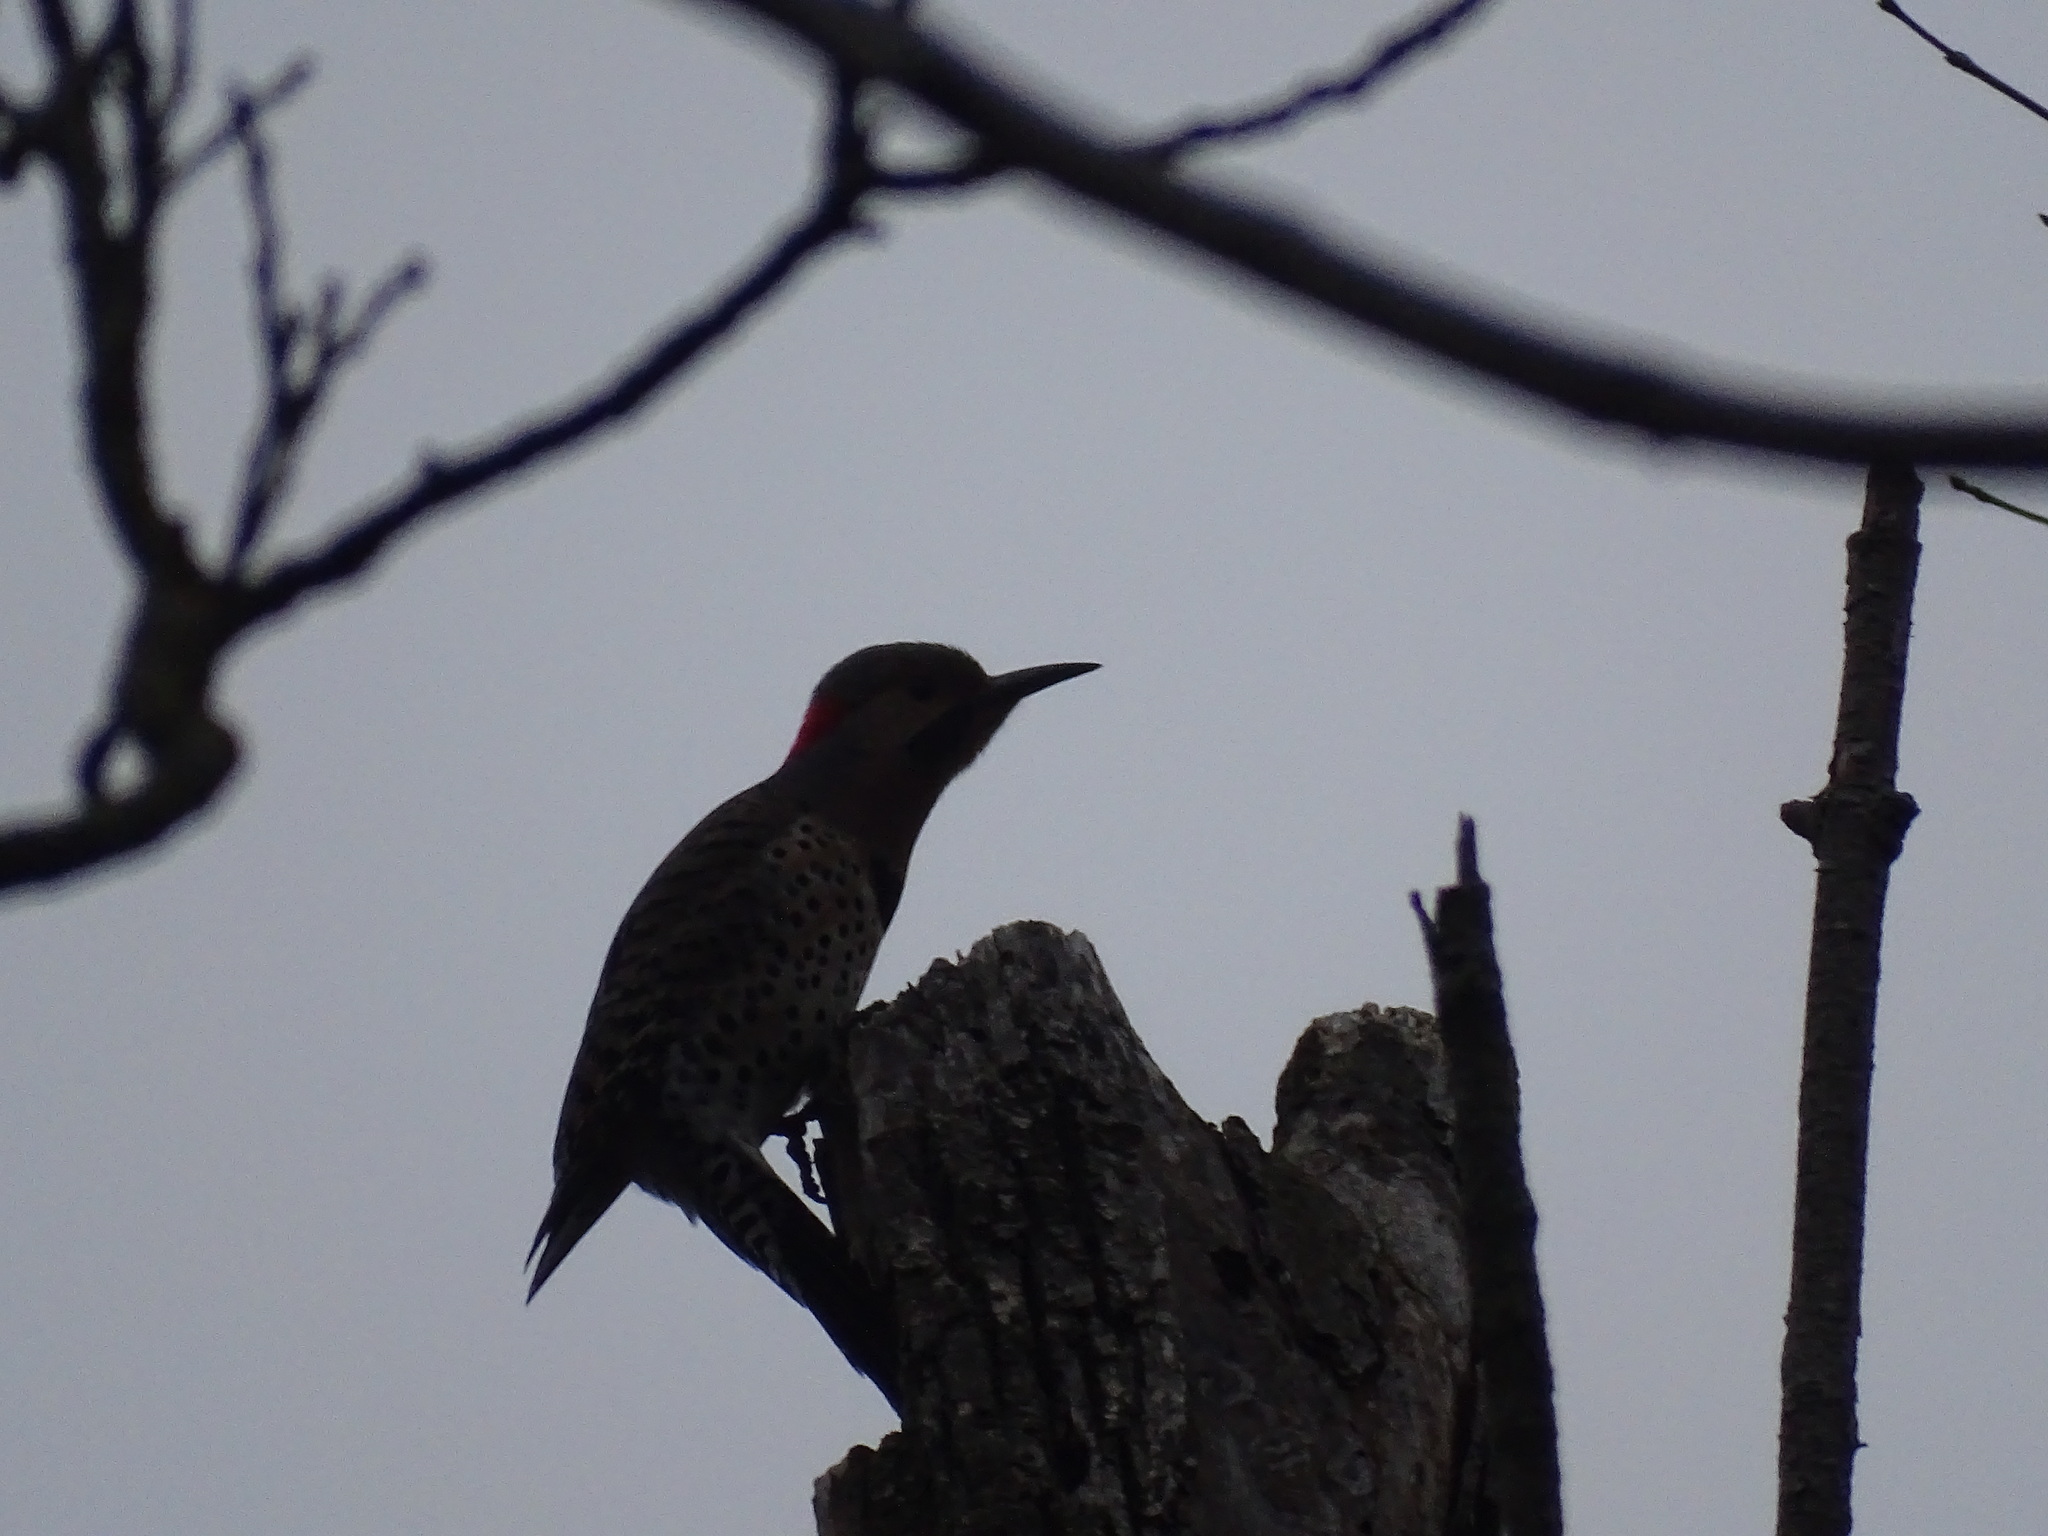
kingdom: Animalia
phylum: Chordata
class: Aves
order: Piciformes
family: Picidae
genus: Colaptes
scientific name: Colaptes auratus
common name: Northern flicker
